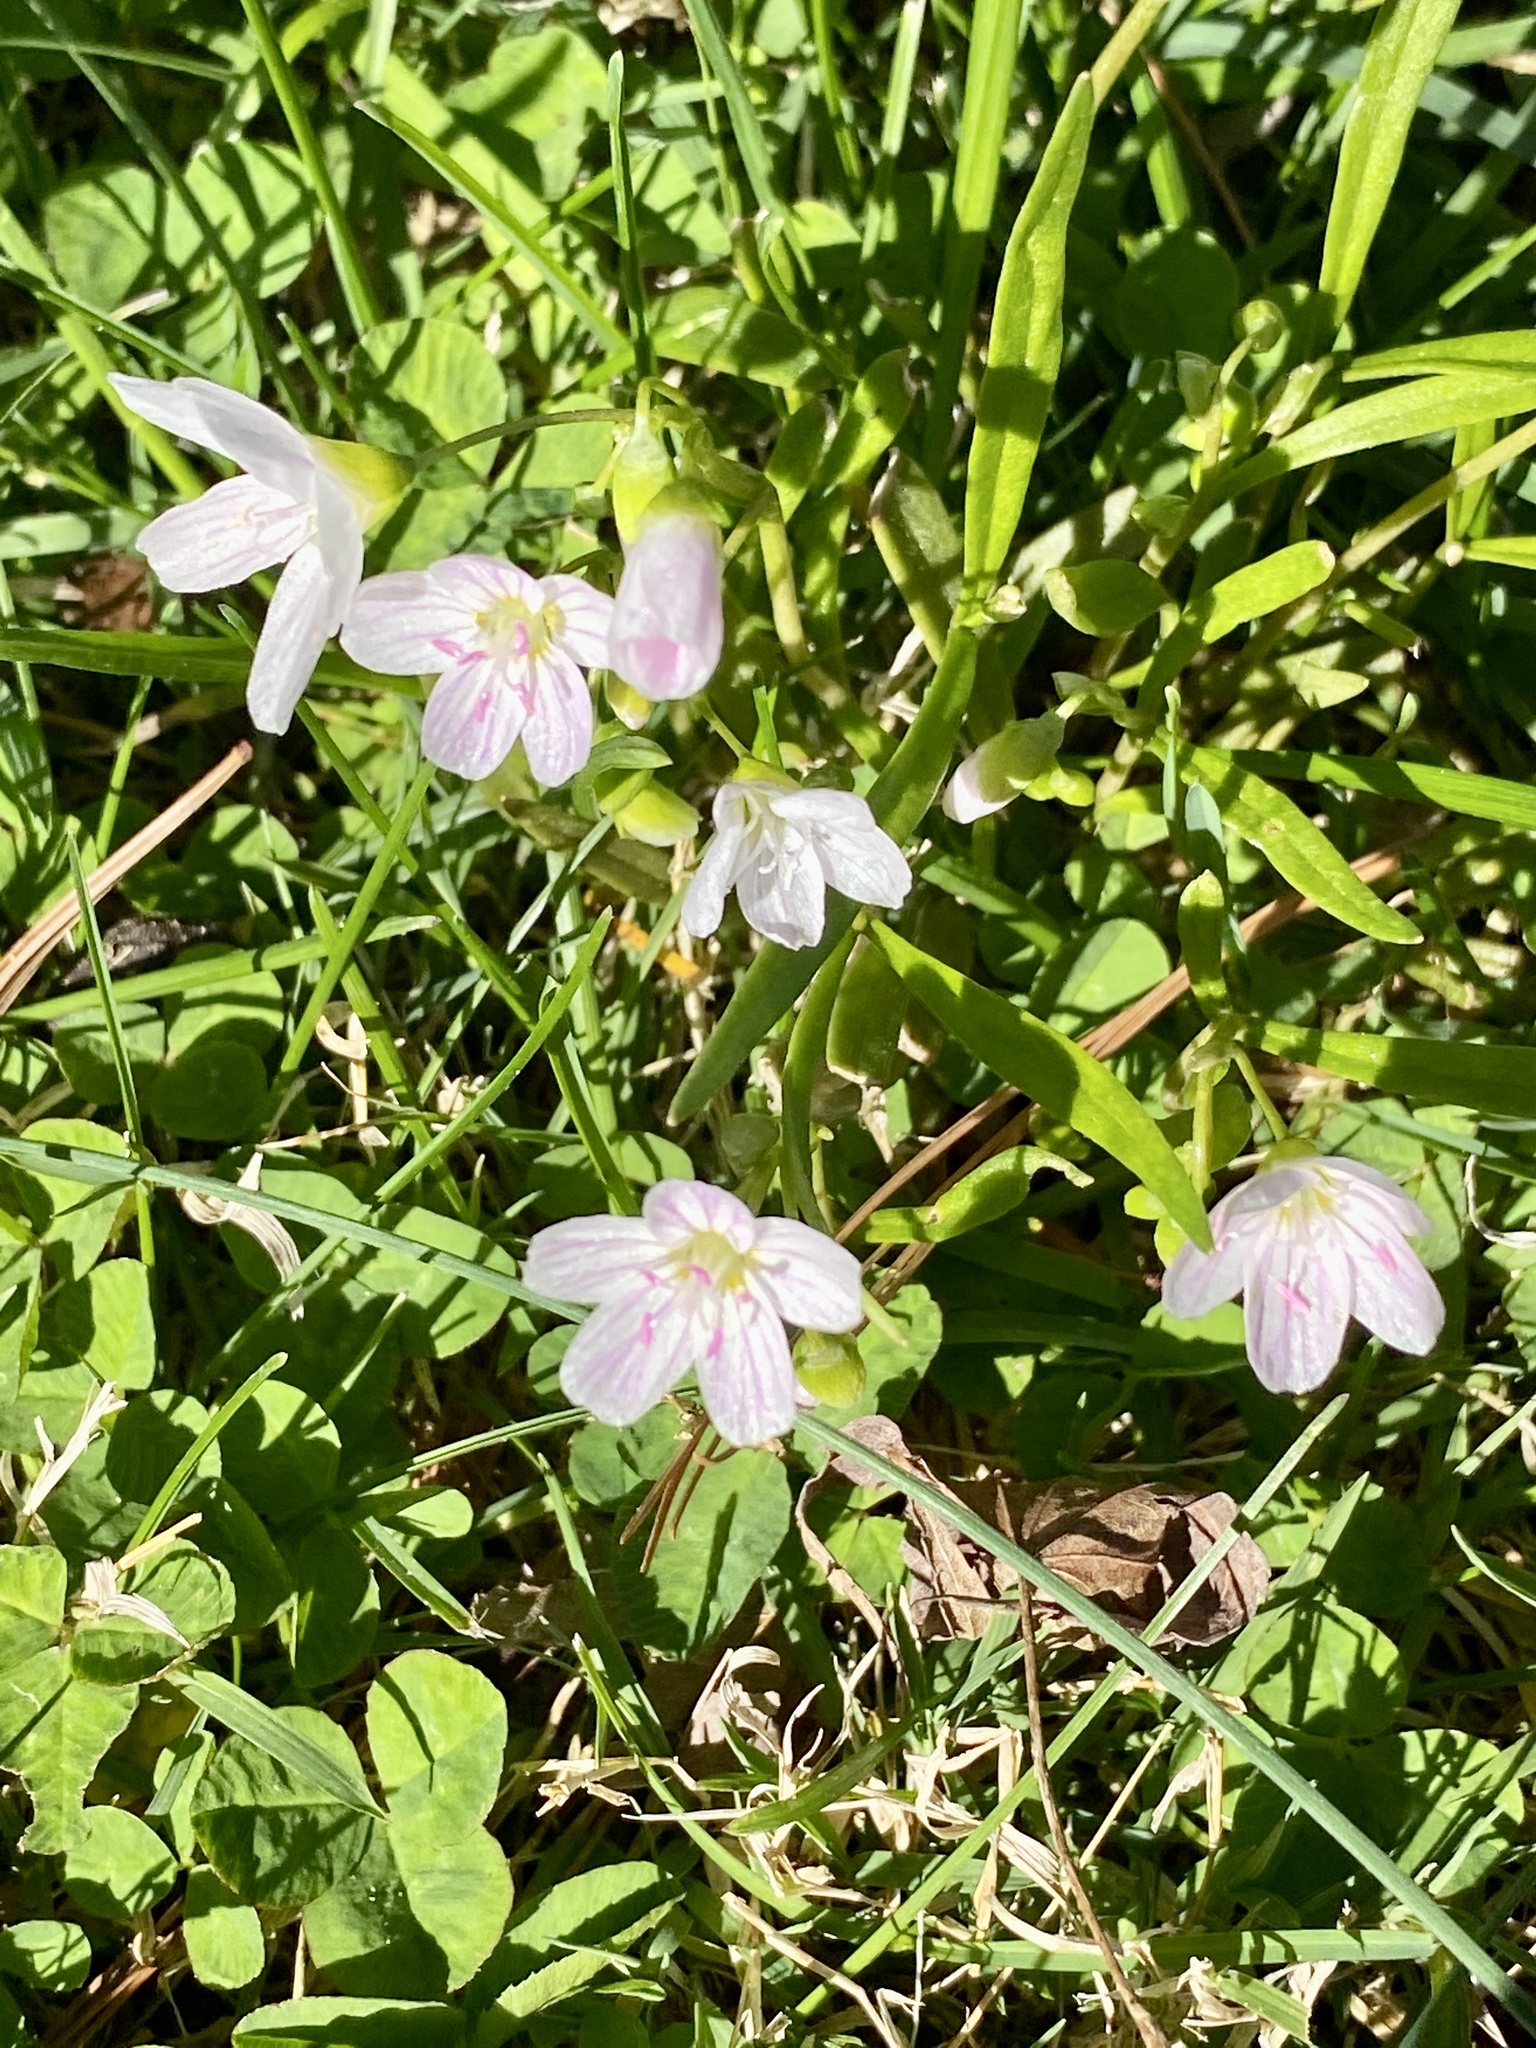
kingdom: Plantae
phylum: Tracheophyta
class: Magnoliopsida
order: Caryophyllales
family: Montiaceae
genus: Claytonia
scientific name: Claytonia virginica
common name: Virginia springbeauty
